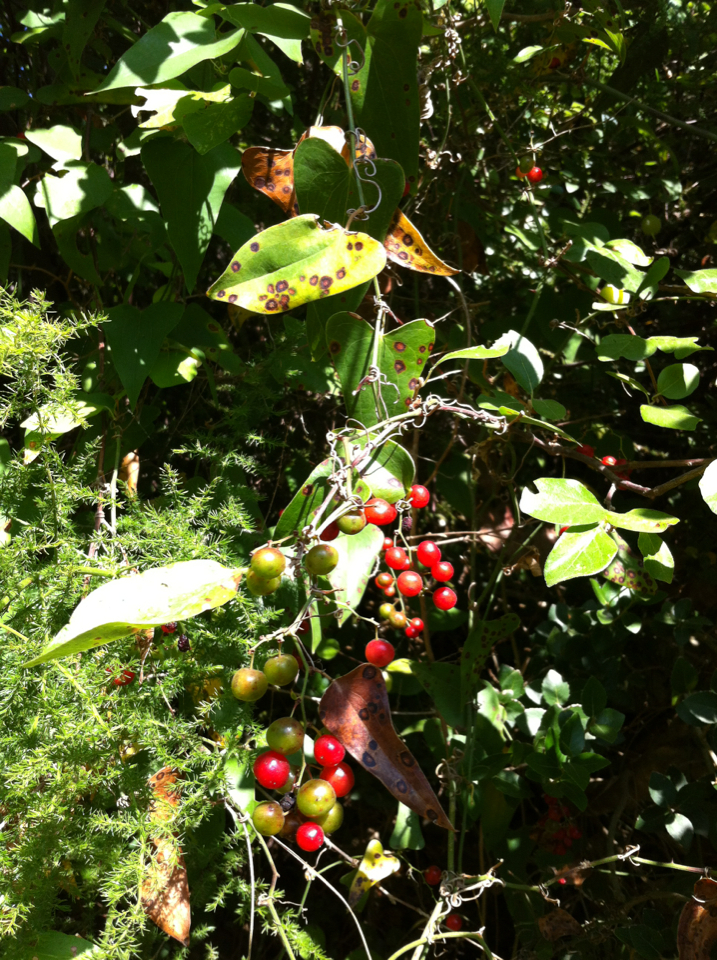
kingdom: Plantae
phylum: Tracheophyta
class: Liliopsida
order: Liliales
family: Smilacaceae
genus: Smilax
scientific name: Smilax aspera
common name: Common smilax
